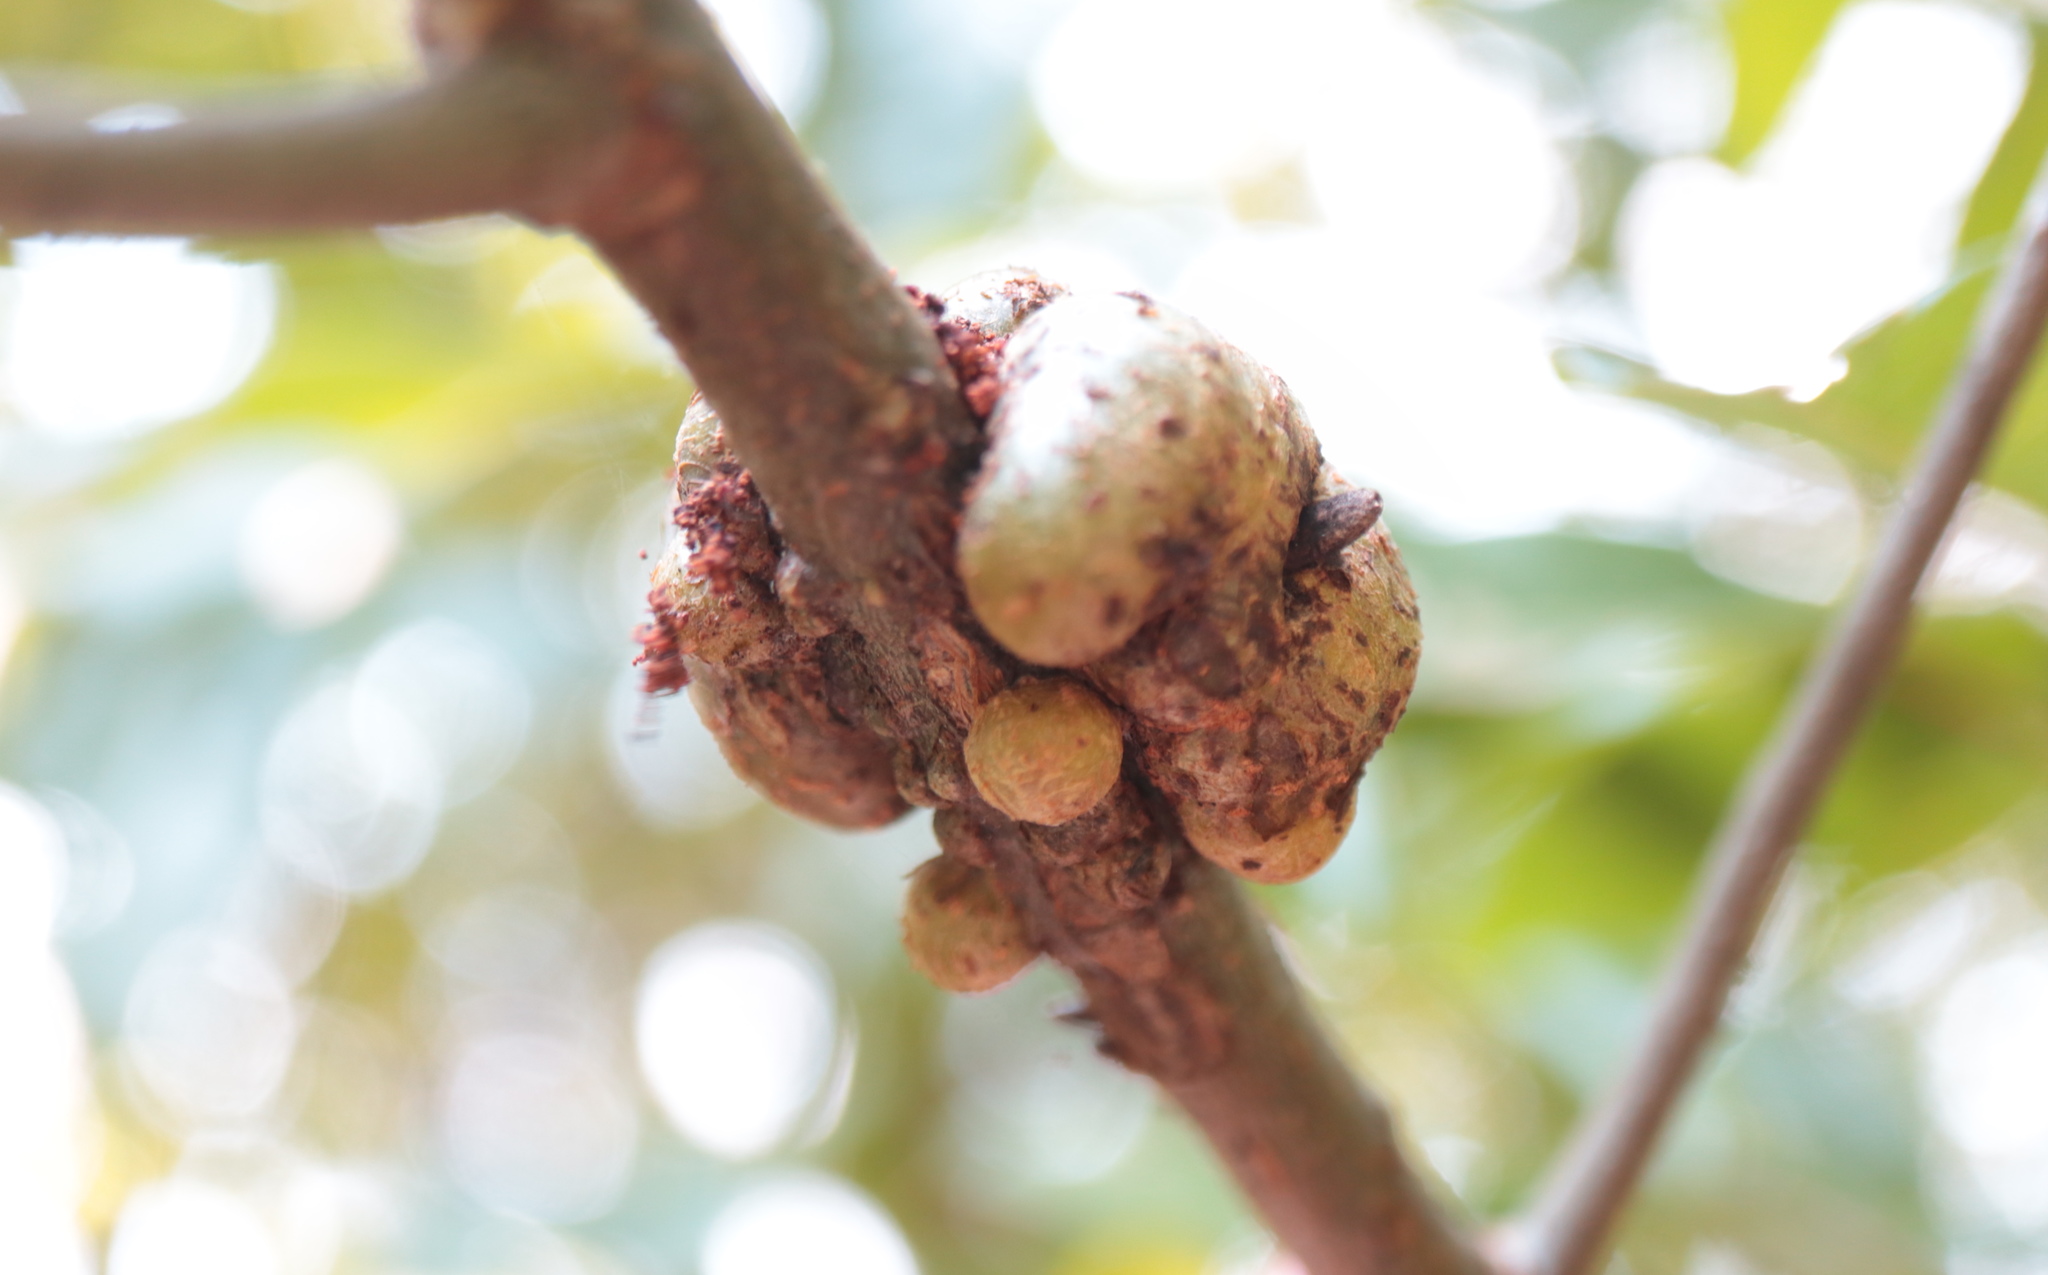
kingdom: Animalia
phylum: Arthropoda
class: Insecta
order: Hymenoptera
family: Cynipidae
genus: Callirhytis
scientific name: Callirhytis
